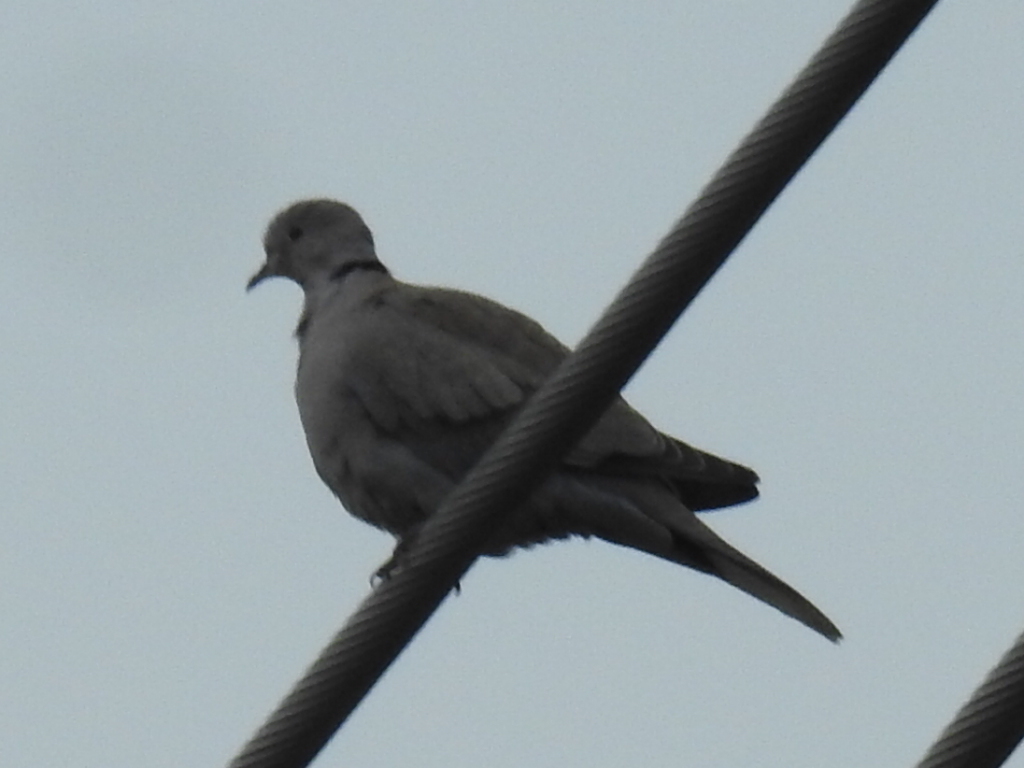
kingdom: Animalia
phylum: Chordata
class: Aves
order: Columbiformes
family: Columbidae
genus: Streptopelia
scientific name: Streptopelia decaocto
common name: Eurasian collared dove
